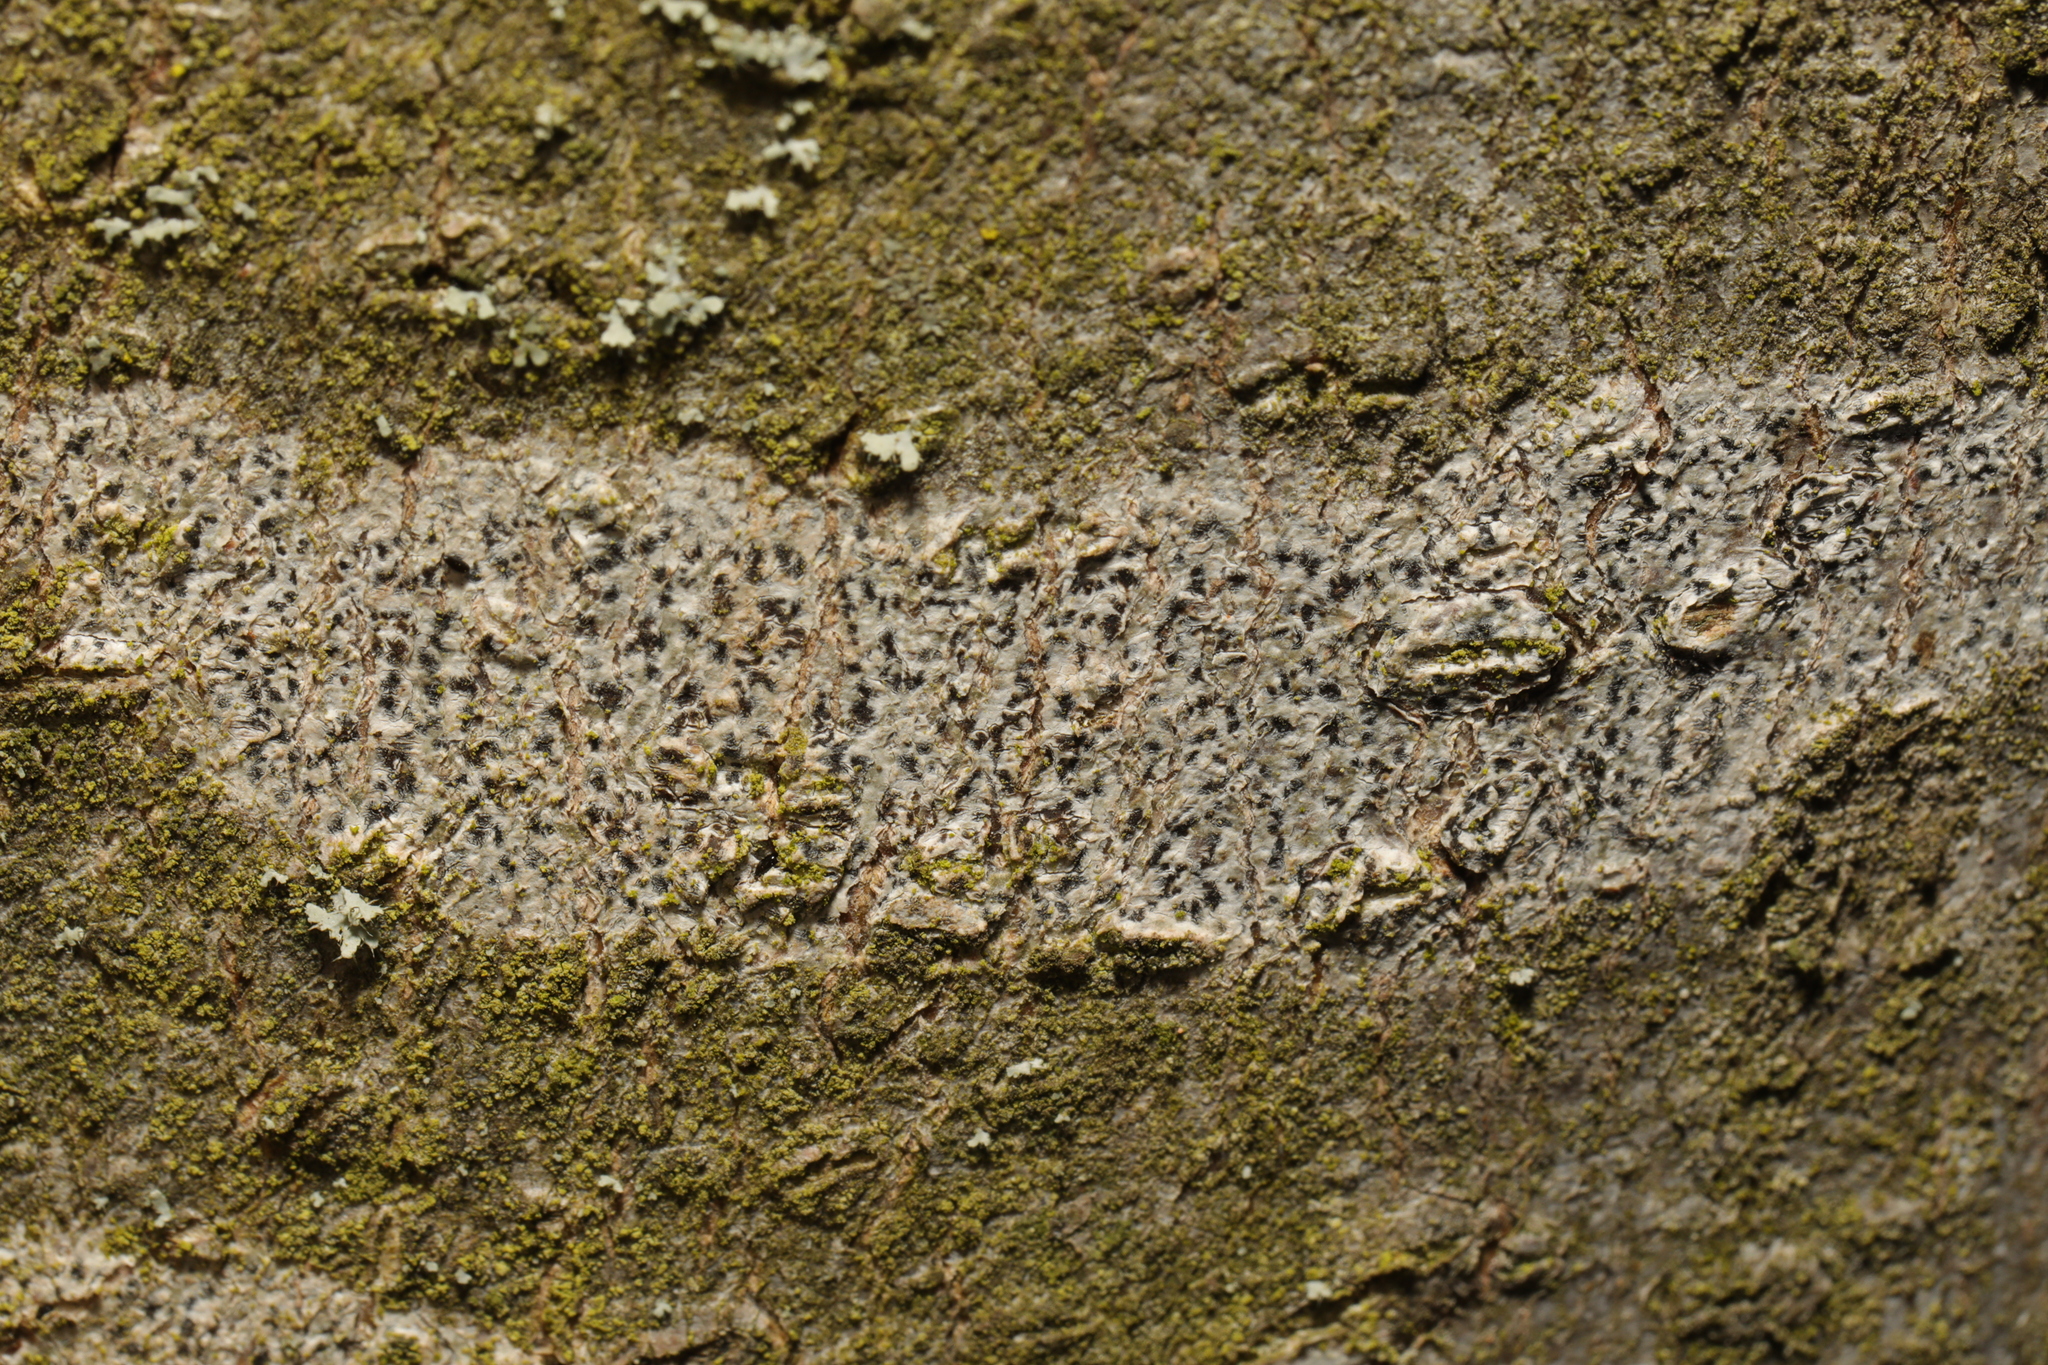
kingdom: Fungi
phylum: Ascomycota
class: Arthoniomycetes
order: Arthoniales
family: Arthoniaceae
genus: Arthonia
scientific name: Arthonia radiata
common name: Asterisk lichen
